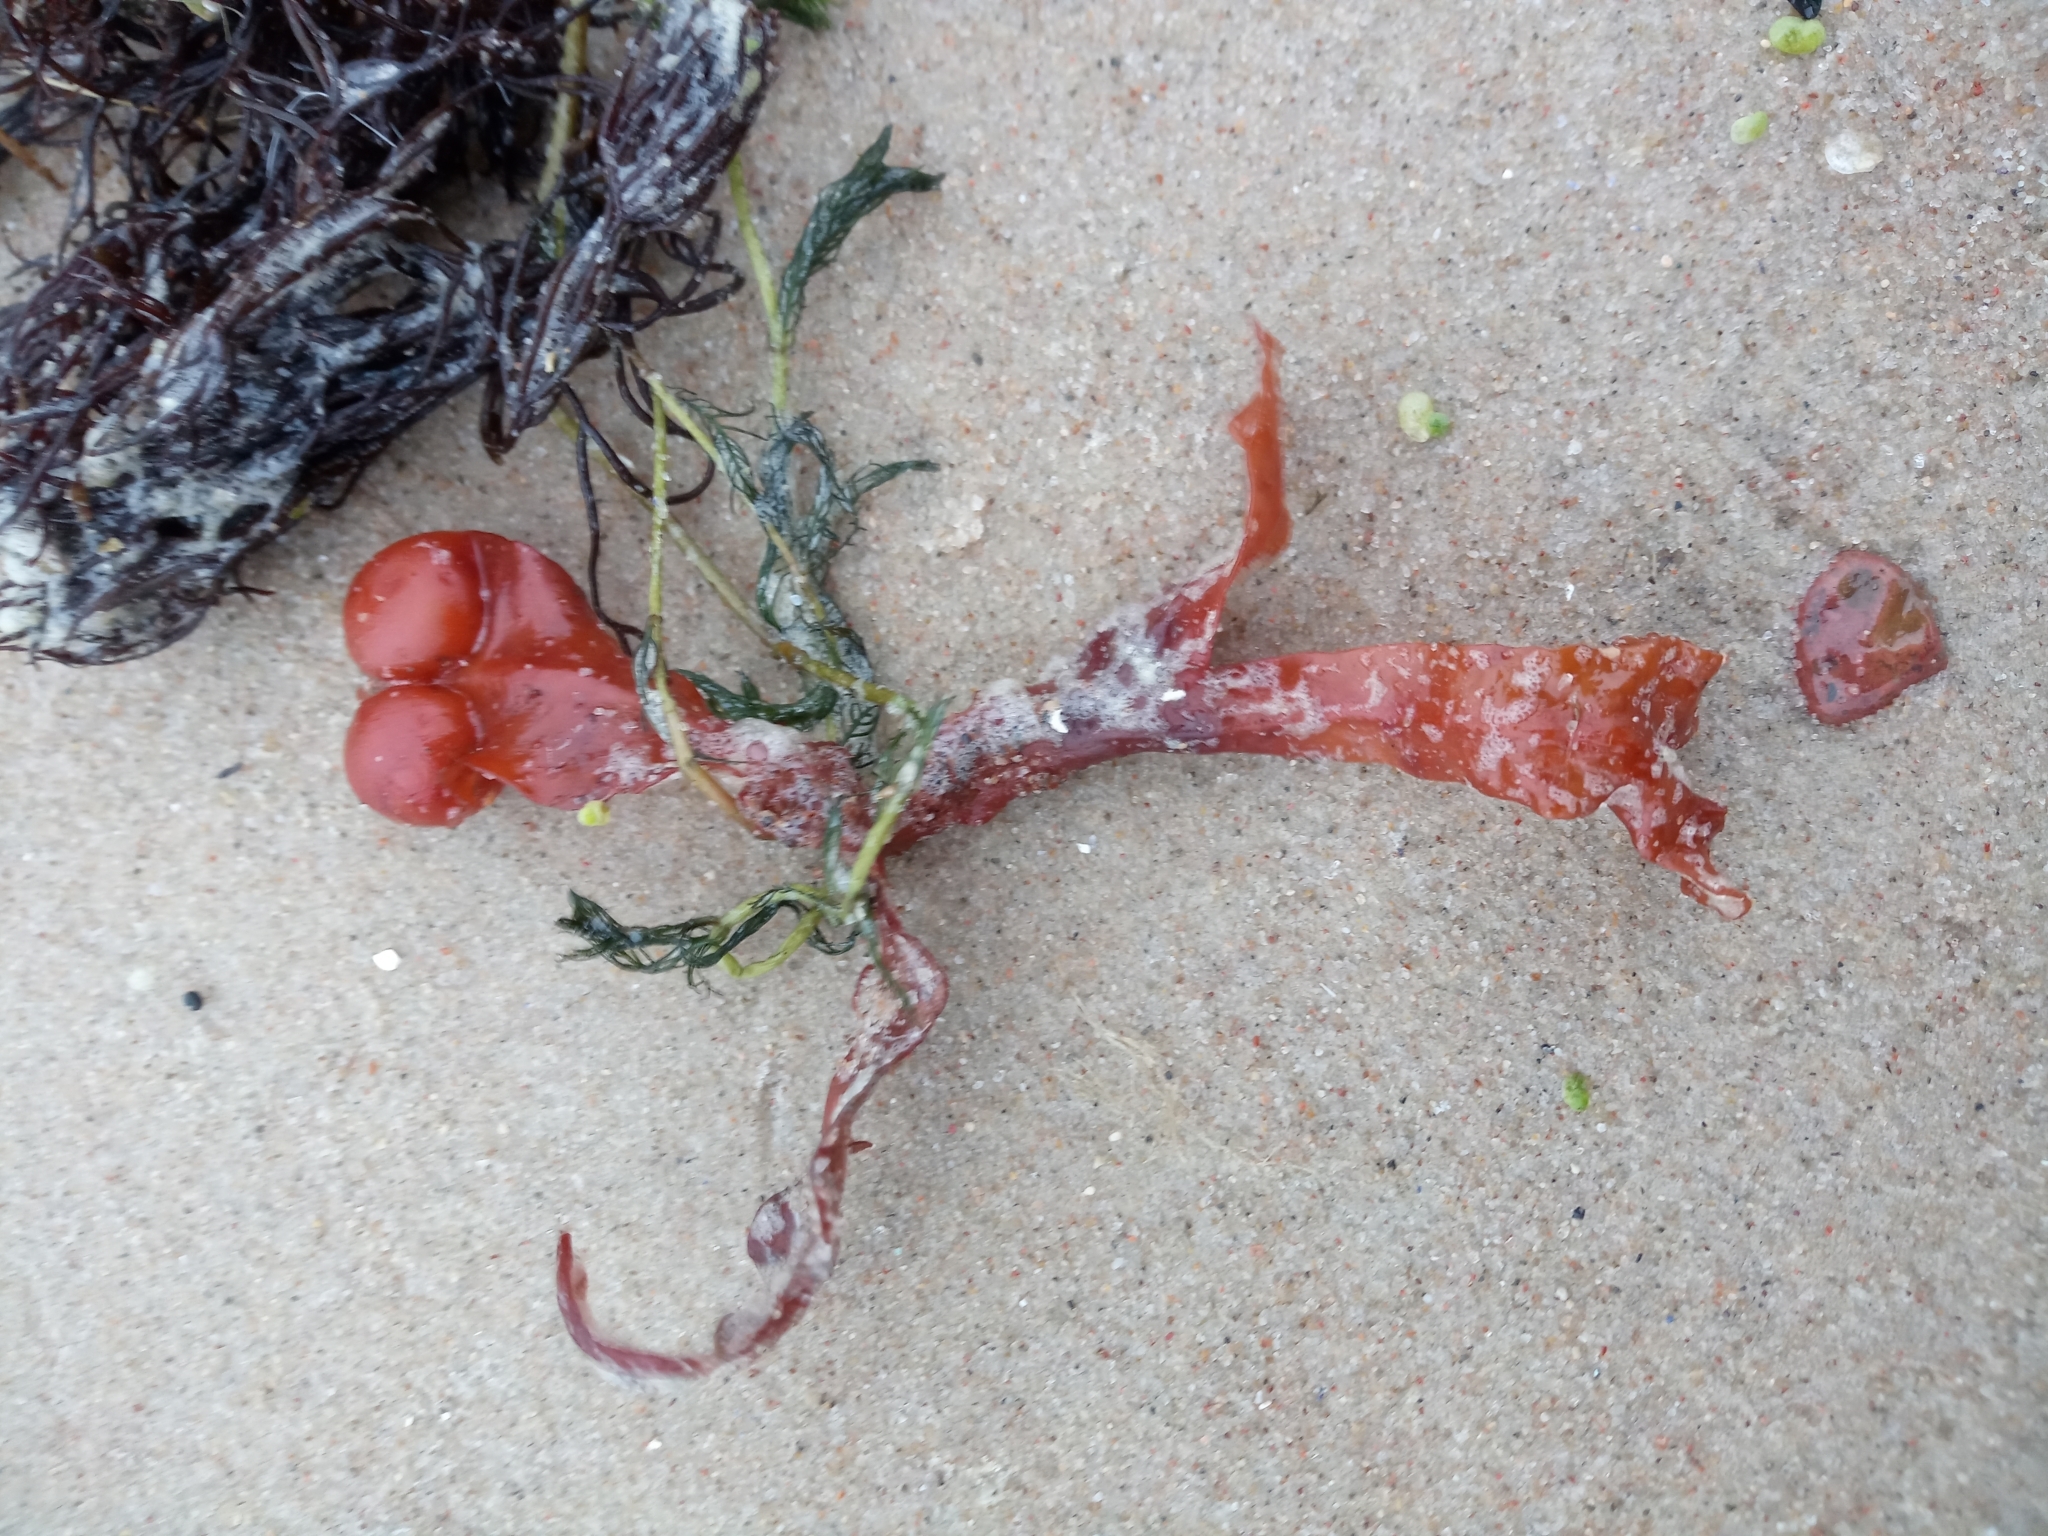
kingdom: Chromista
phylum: Ochrophyta
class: Phaeophyceae
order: Fucales
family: Fucaceae
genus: Fucus
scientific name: Fucus vesiculosus
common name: Bladder wrack
